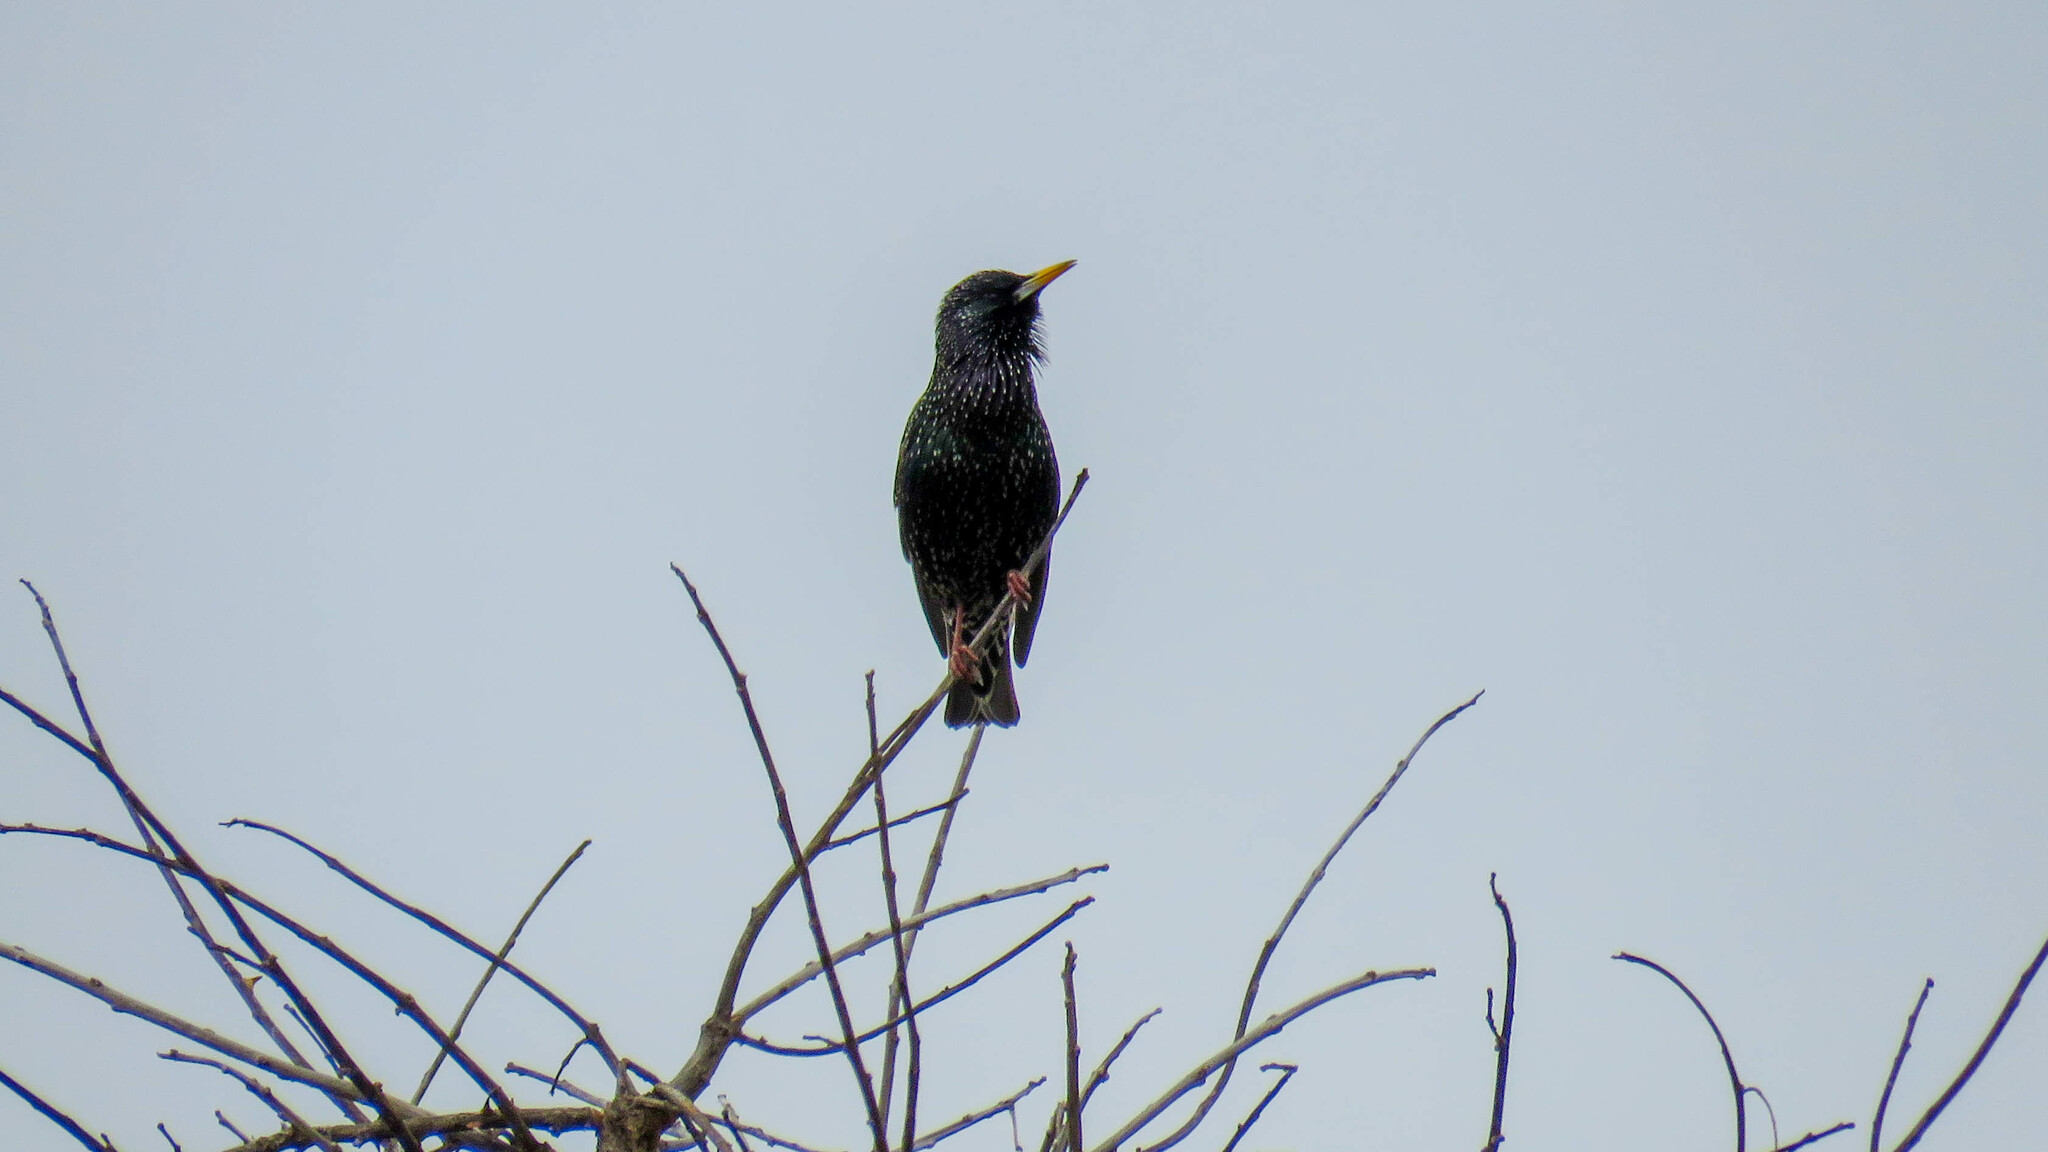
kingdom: Animalia
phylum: Chordata
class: Aves
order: Passeriformes
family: Sturnidae
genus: Sturnus
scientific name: Sturnus vulgaris
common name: Common starling
